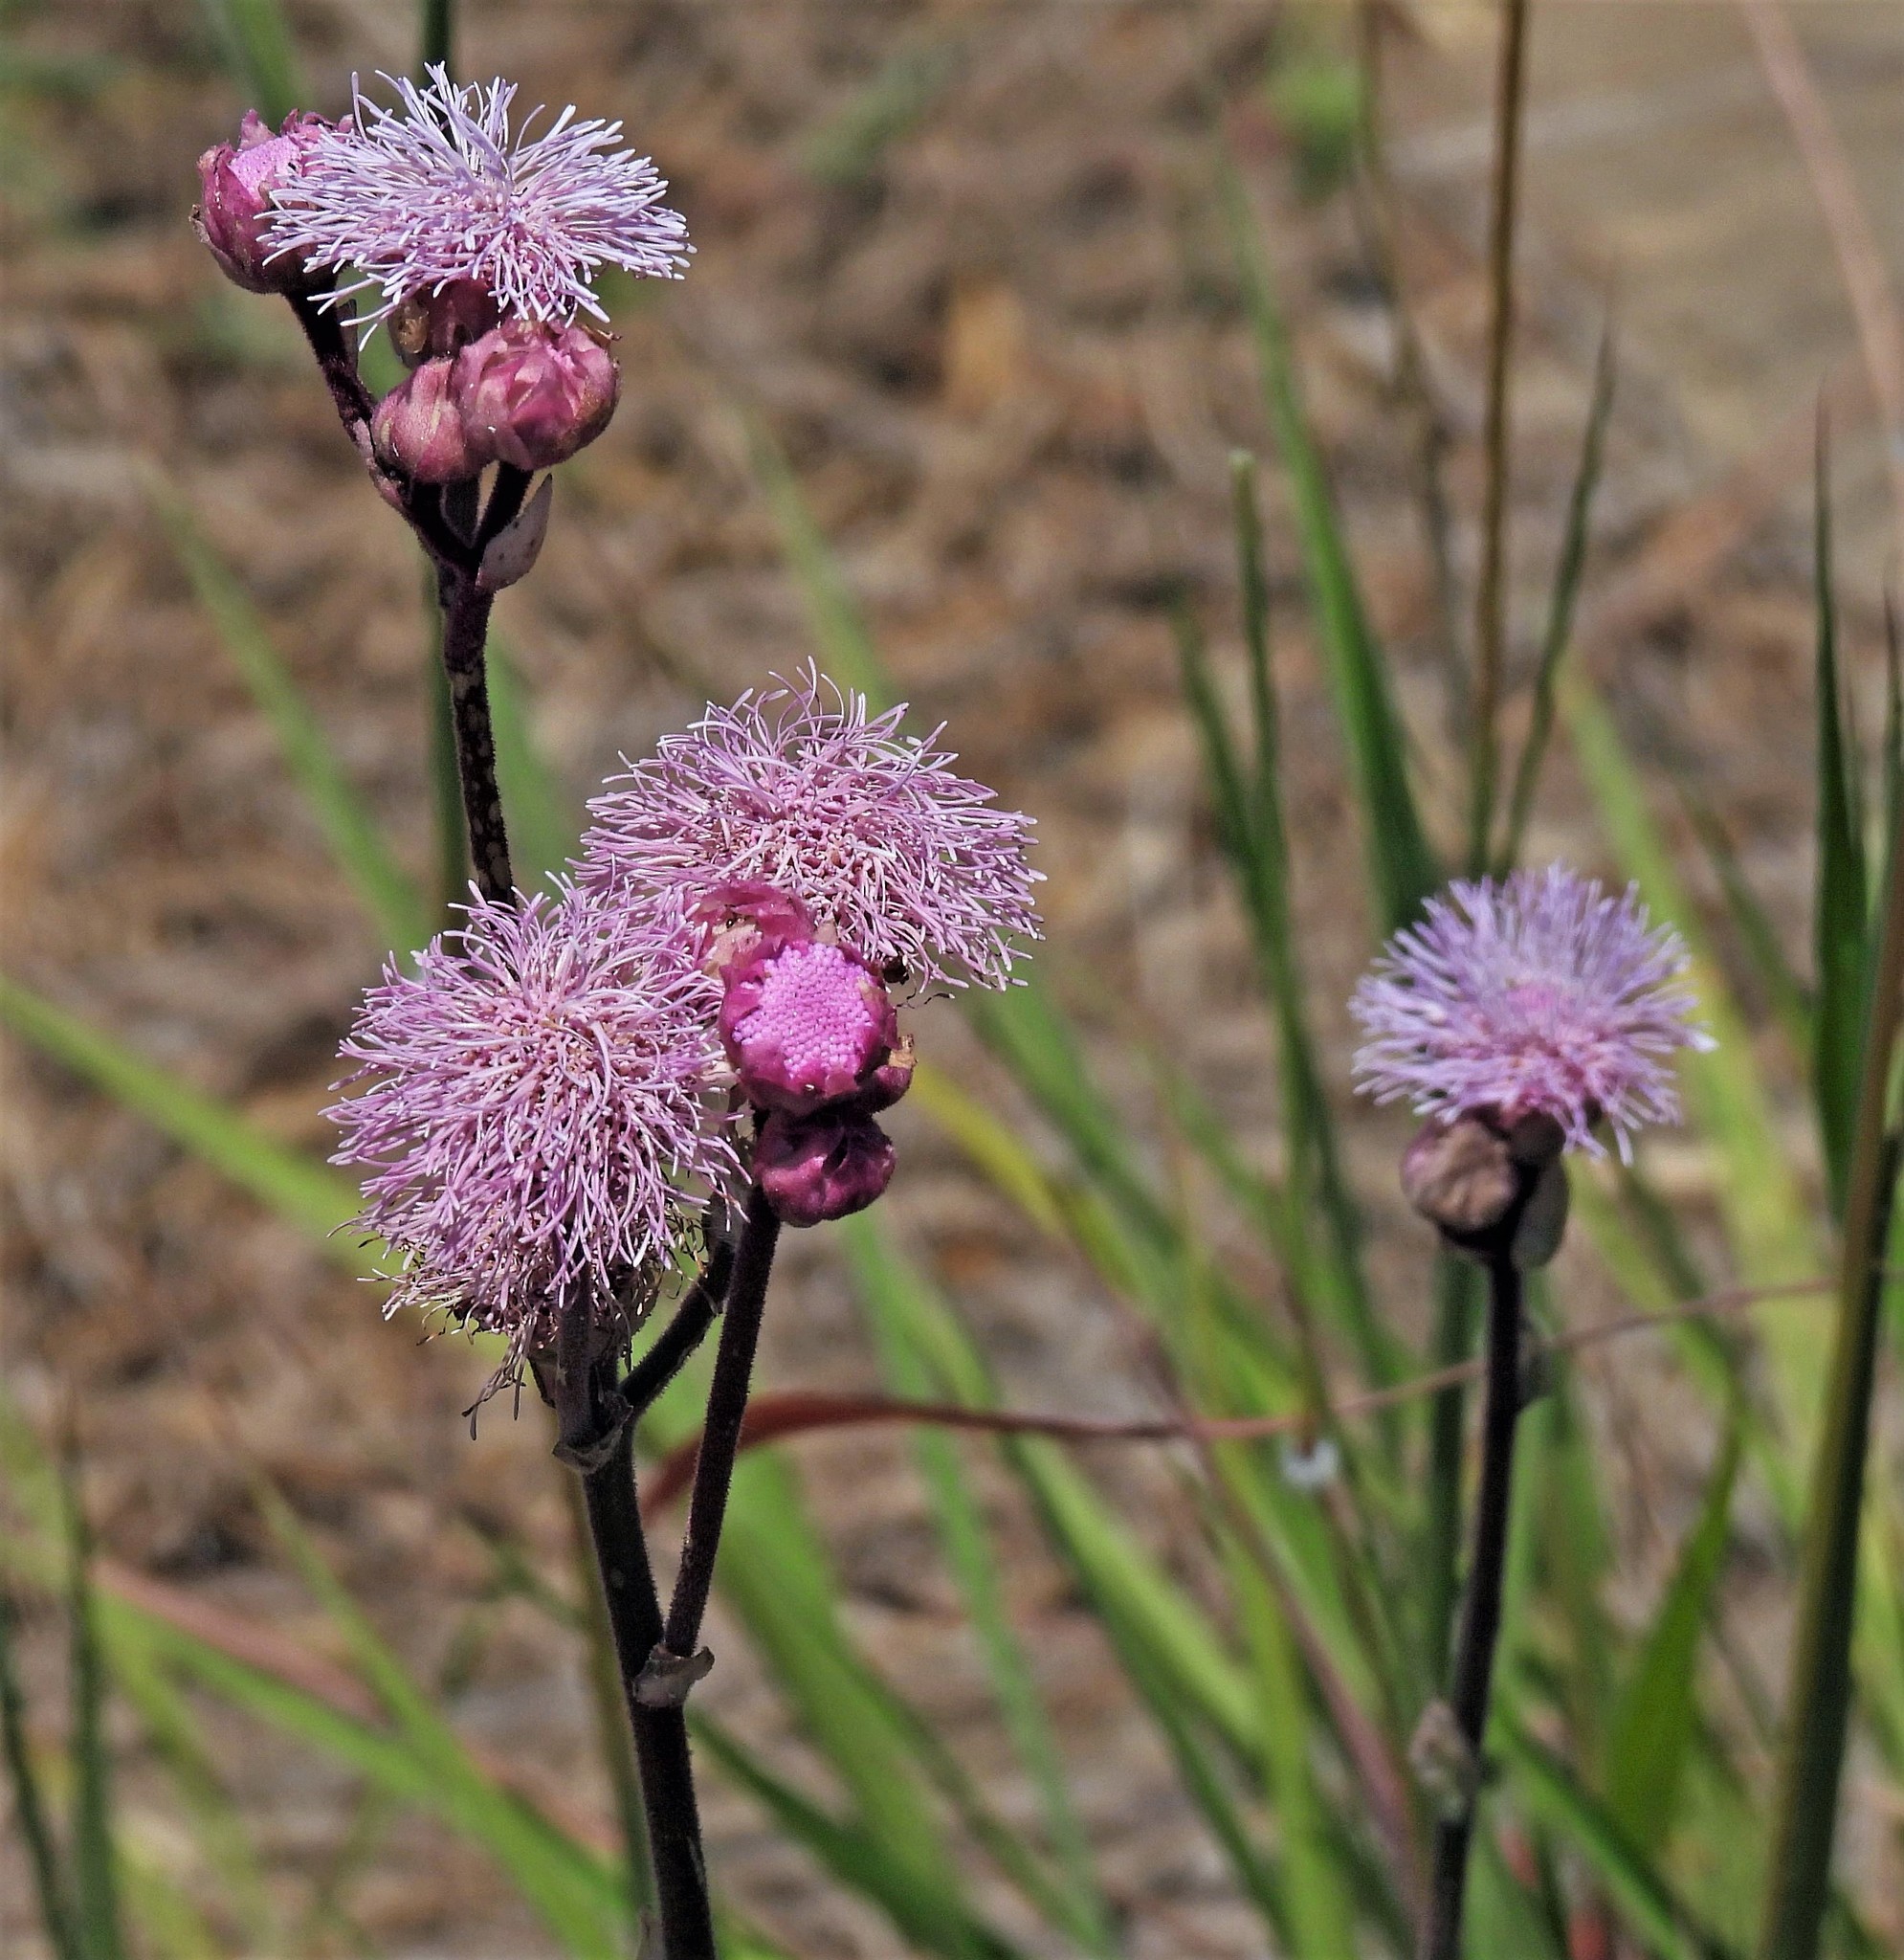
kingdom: Plantae
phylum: Tracheophyta
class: Magnoliopsida
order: Asterales
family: Asteraceae
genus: Campuloclinium
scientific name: Campuloclinium macrocephalum
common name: Pompomweed
